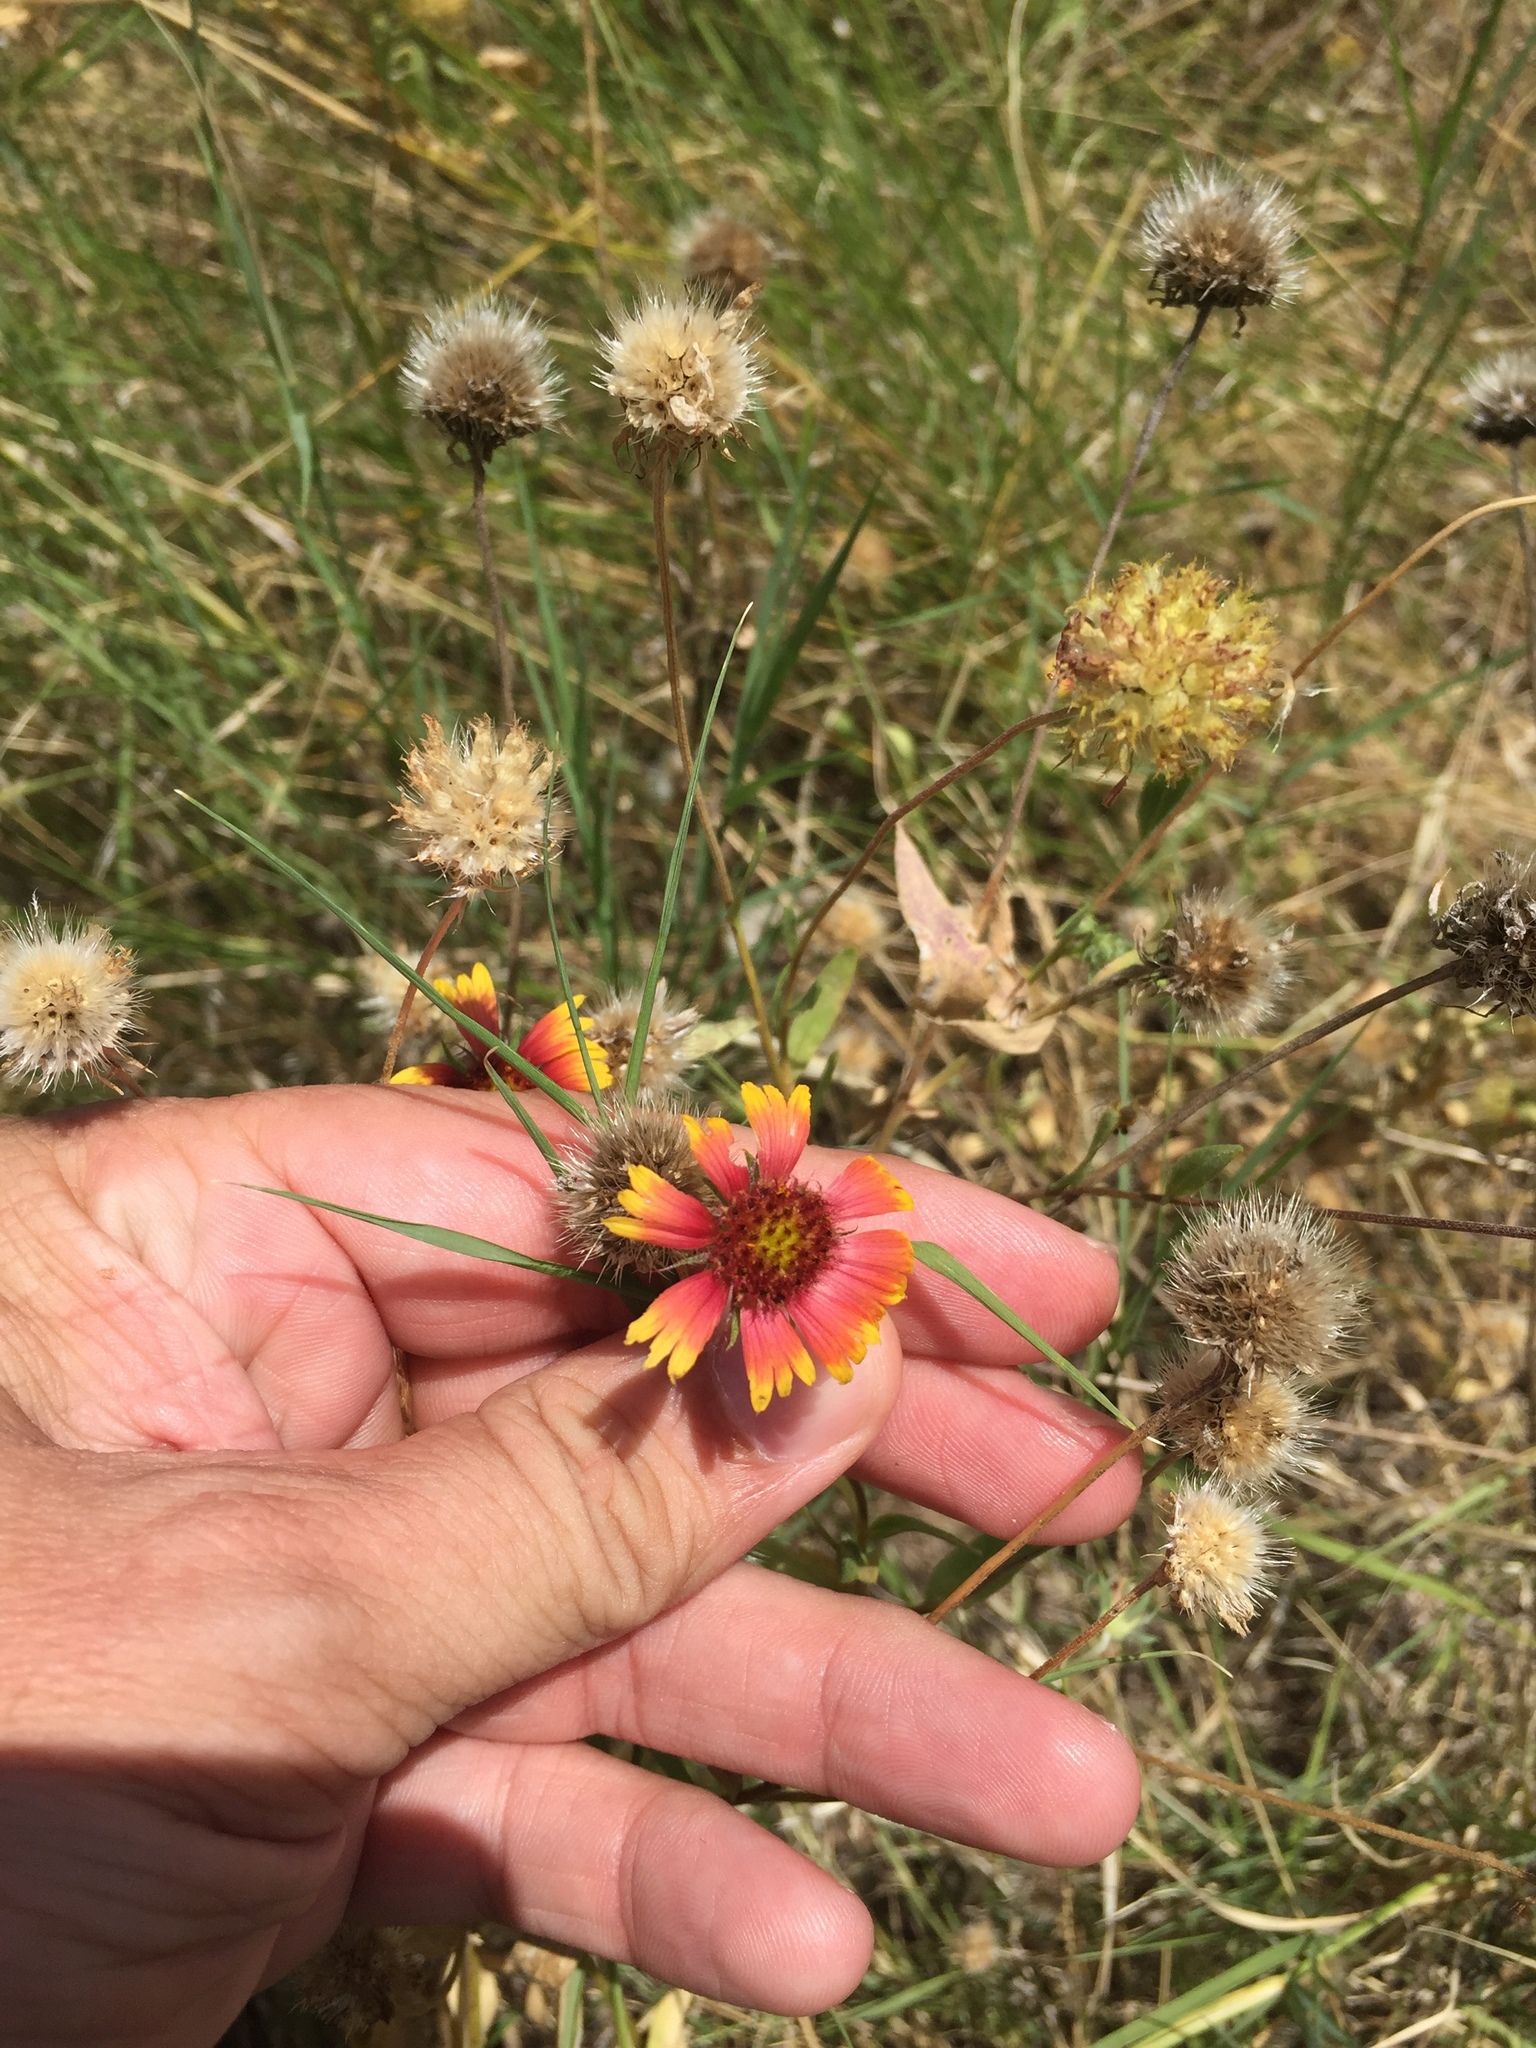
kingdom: Plantae
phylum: Tracheophyta
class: Magnoliopsida
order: Asterales
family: Asteraceae
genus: Gaillardia
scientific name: Gaillardia pulchella
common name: Firewheel
